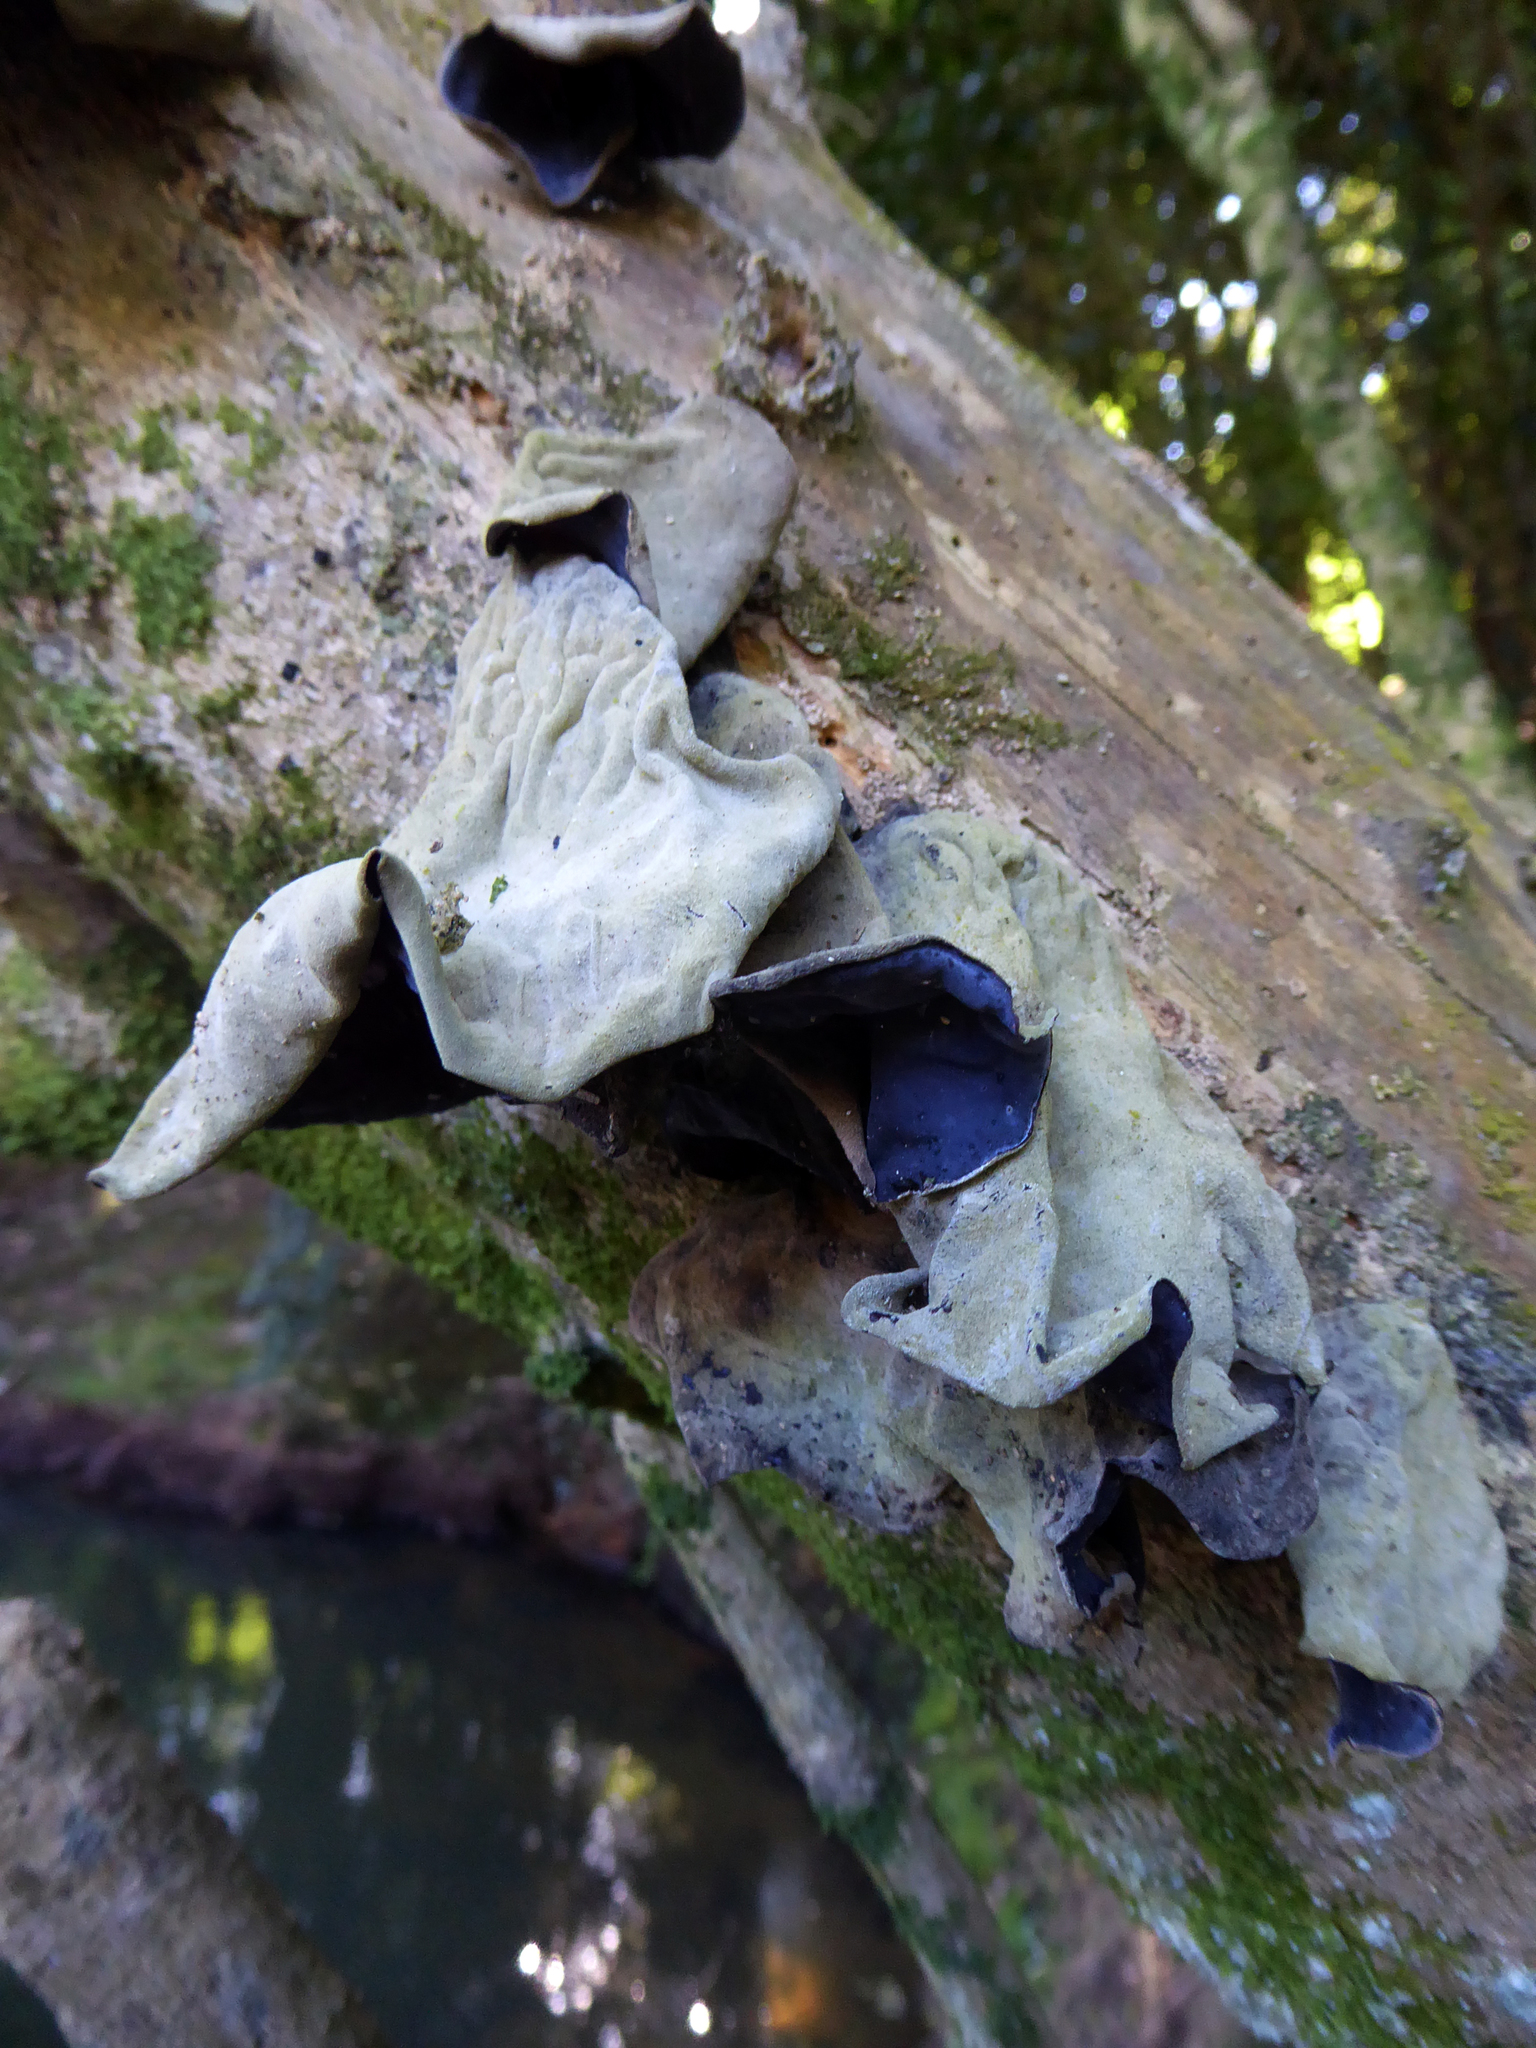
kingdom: Fungi
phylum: Basidiomycota
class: Agaricomycetes
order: Auriculariales
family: Auriculariaceae
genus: Auricularia
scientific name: Auricularia cornea
